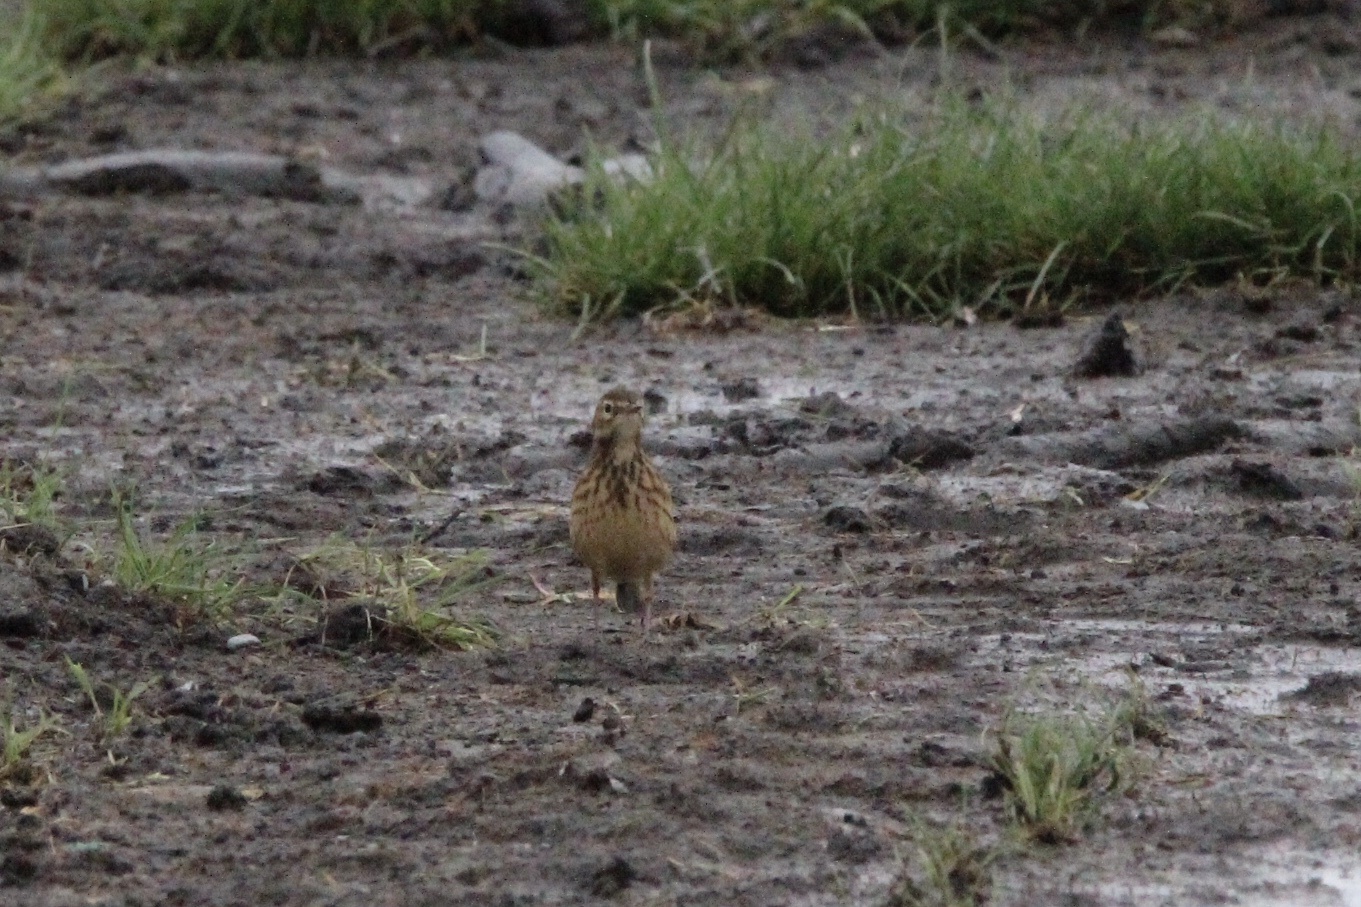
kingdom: Animalia
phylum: Chordata
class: Aves
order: Passeriformes
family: Motacillidae
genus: Anthus
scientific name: Anthus rubescens
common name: Buff-bellied pipit
